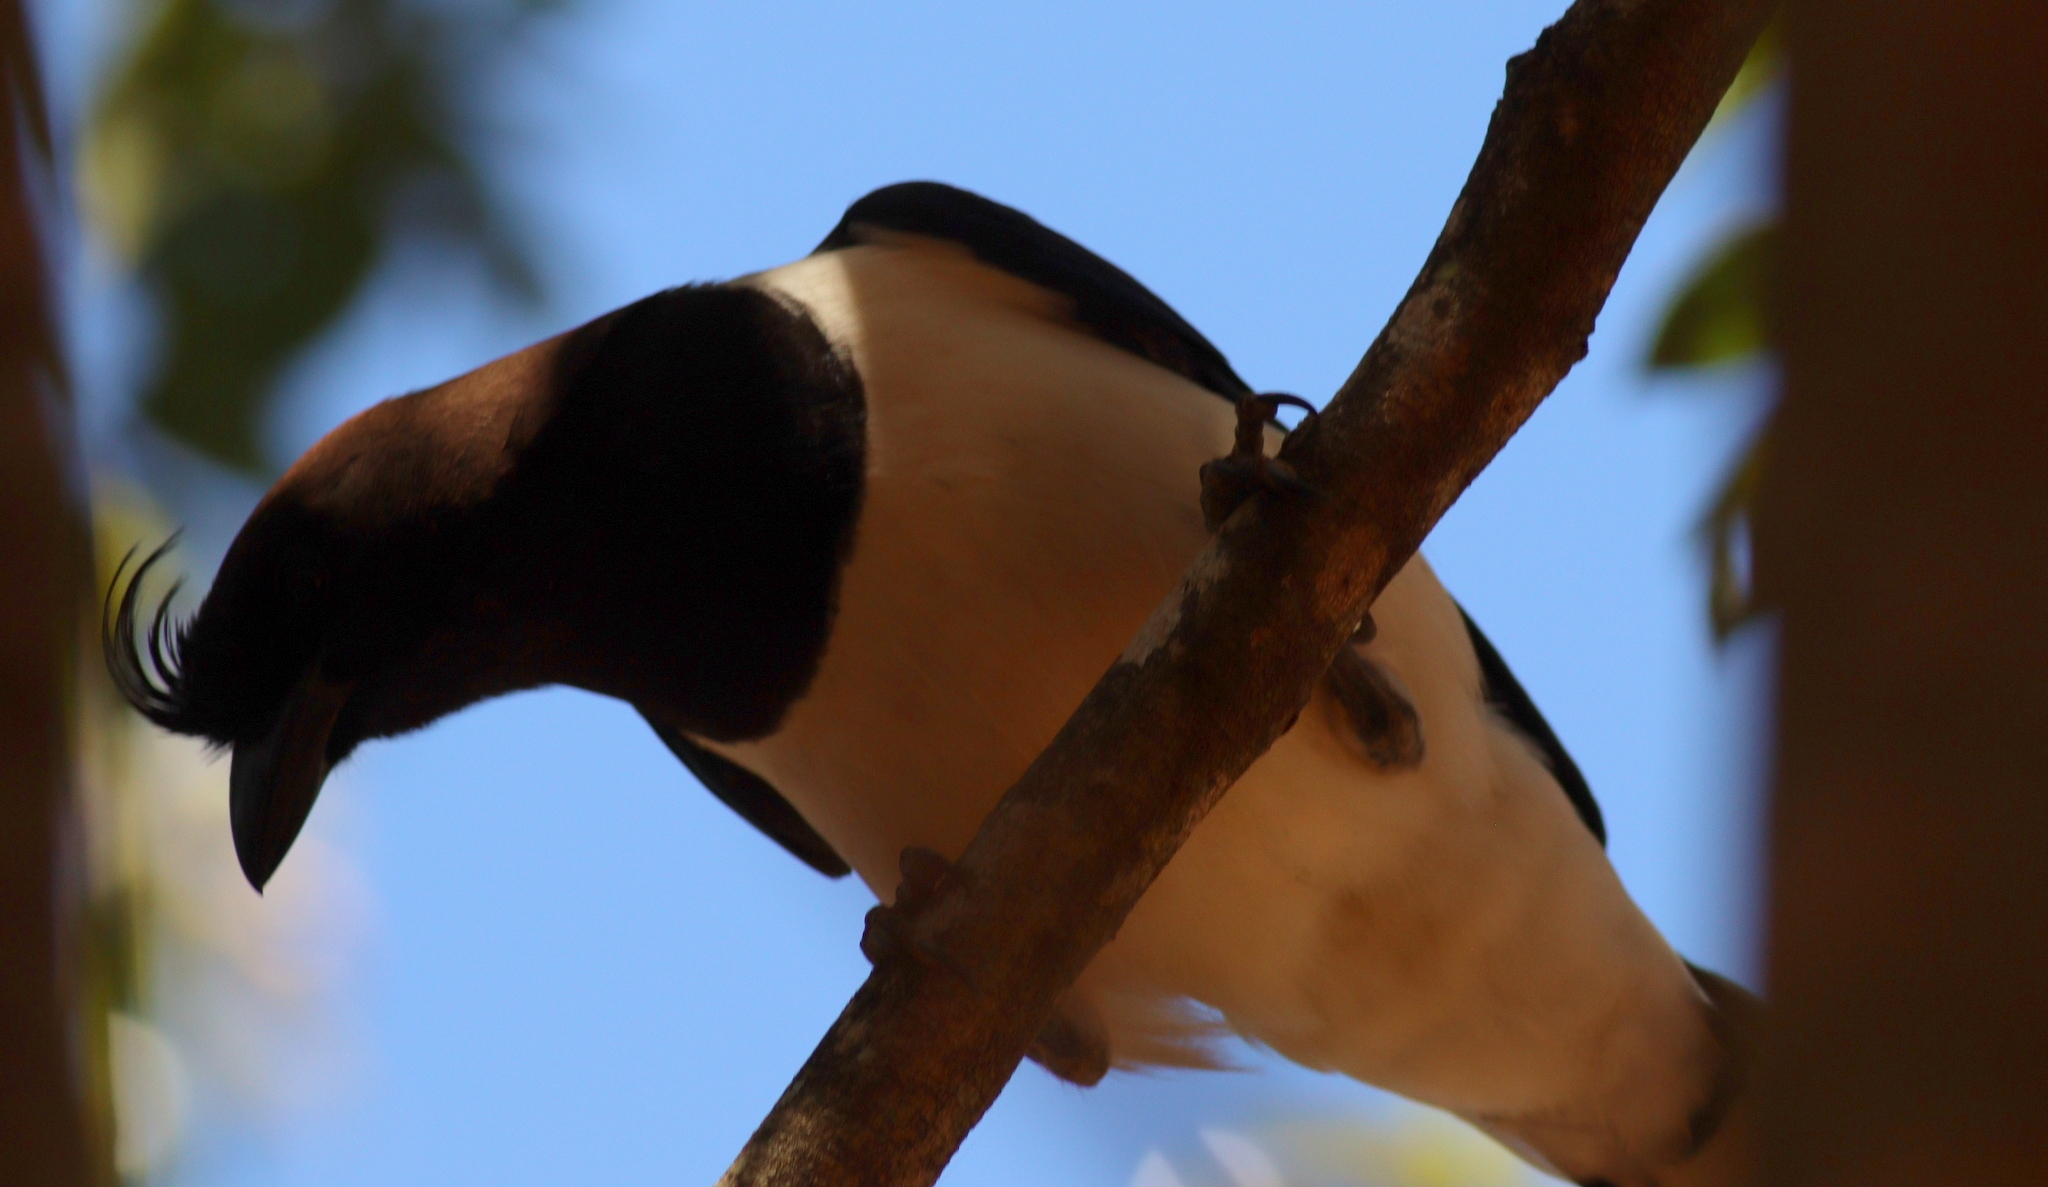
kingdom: Animalia
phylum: Chordata
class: Aves
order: Passeriformes
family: Corvidae
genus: Cyanocorax
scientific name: Cyanocorax cristatellus
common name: Curl-crested jay
